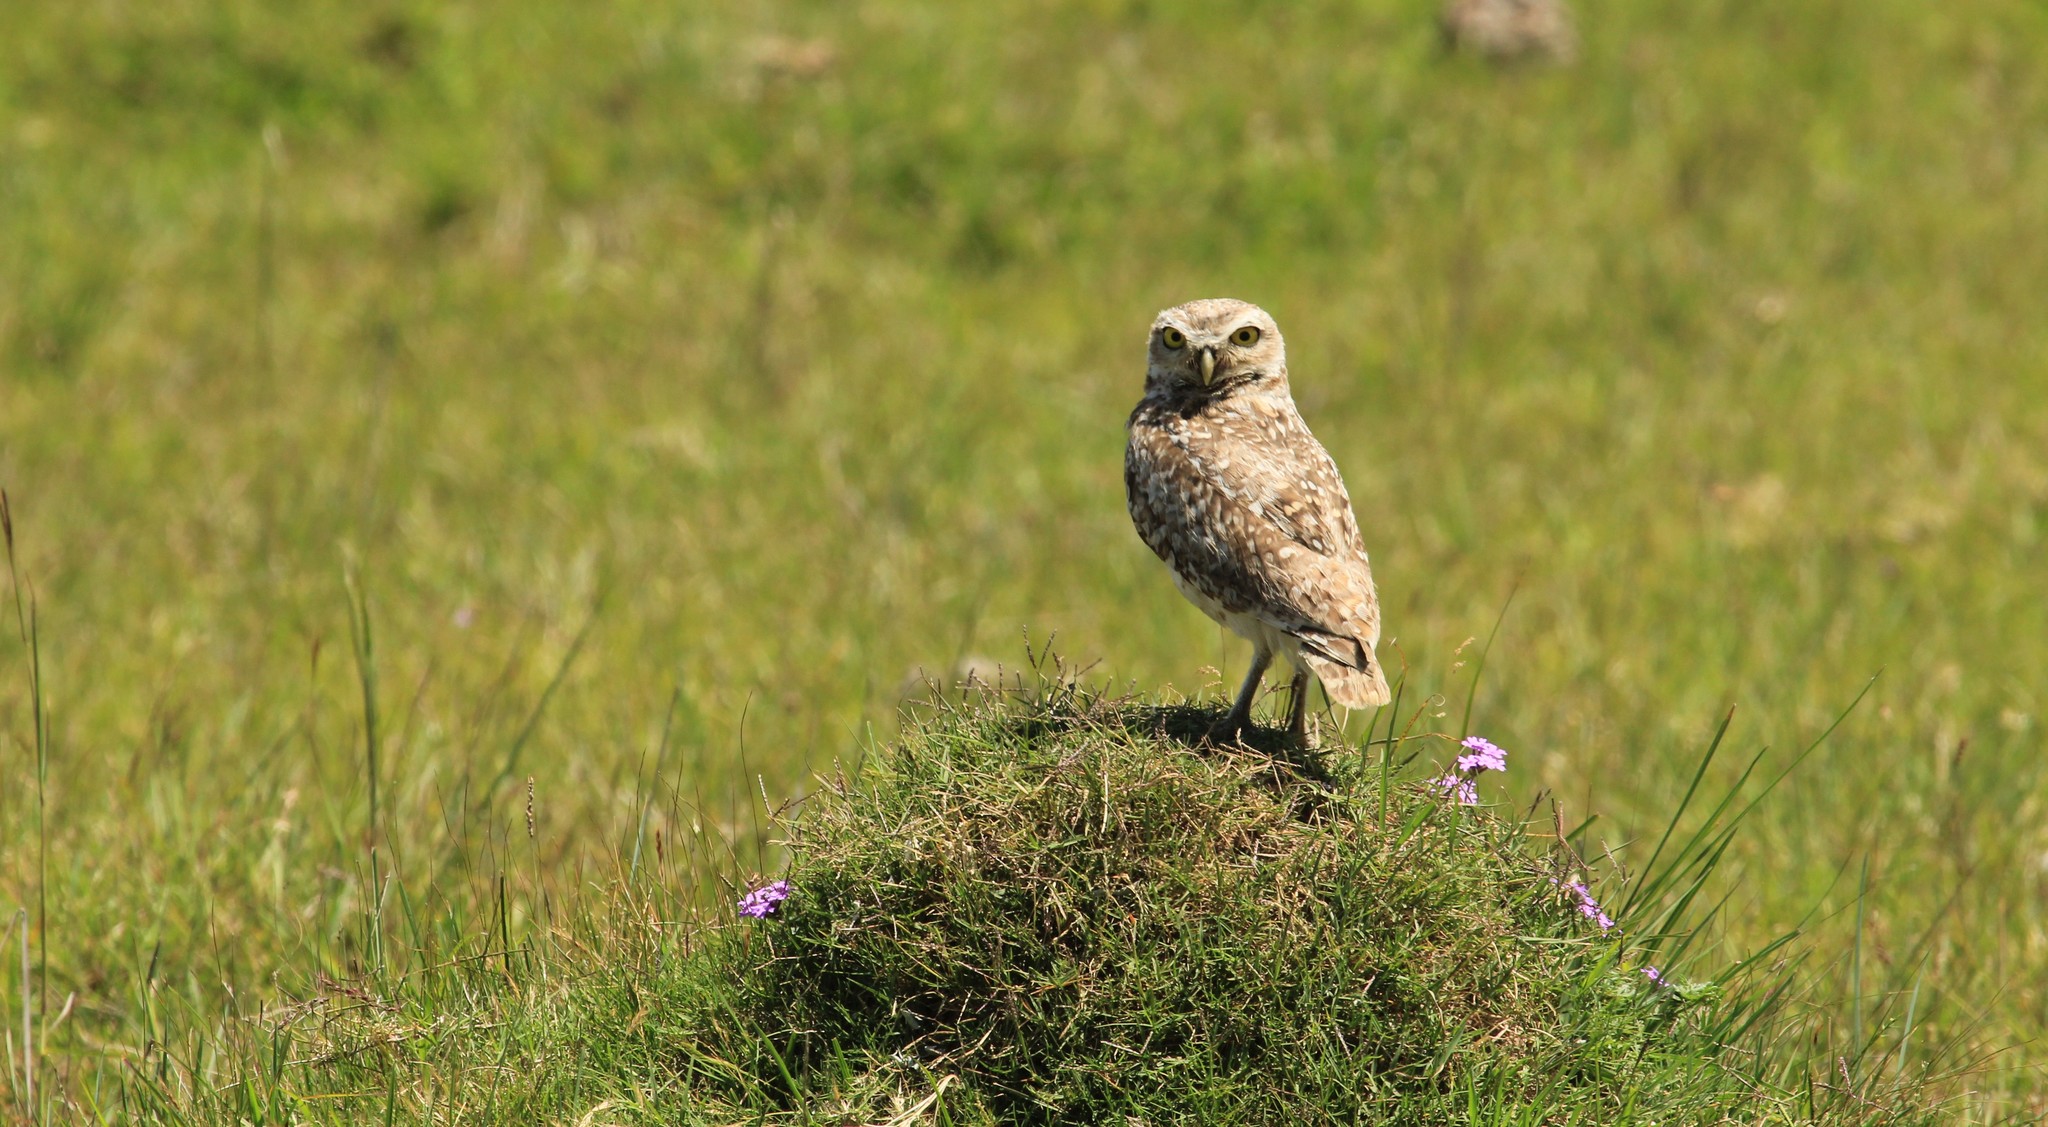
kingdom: Animalia
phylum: Chordata
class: Aves
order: Strigiformes
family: Strigidae
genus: Athene
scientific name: Athene cunicularia
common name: Burrowing owl
